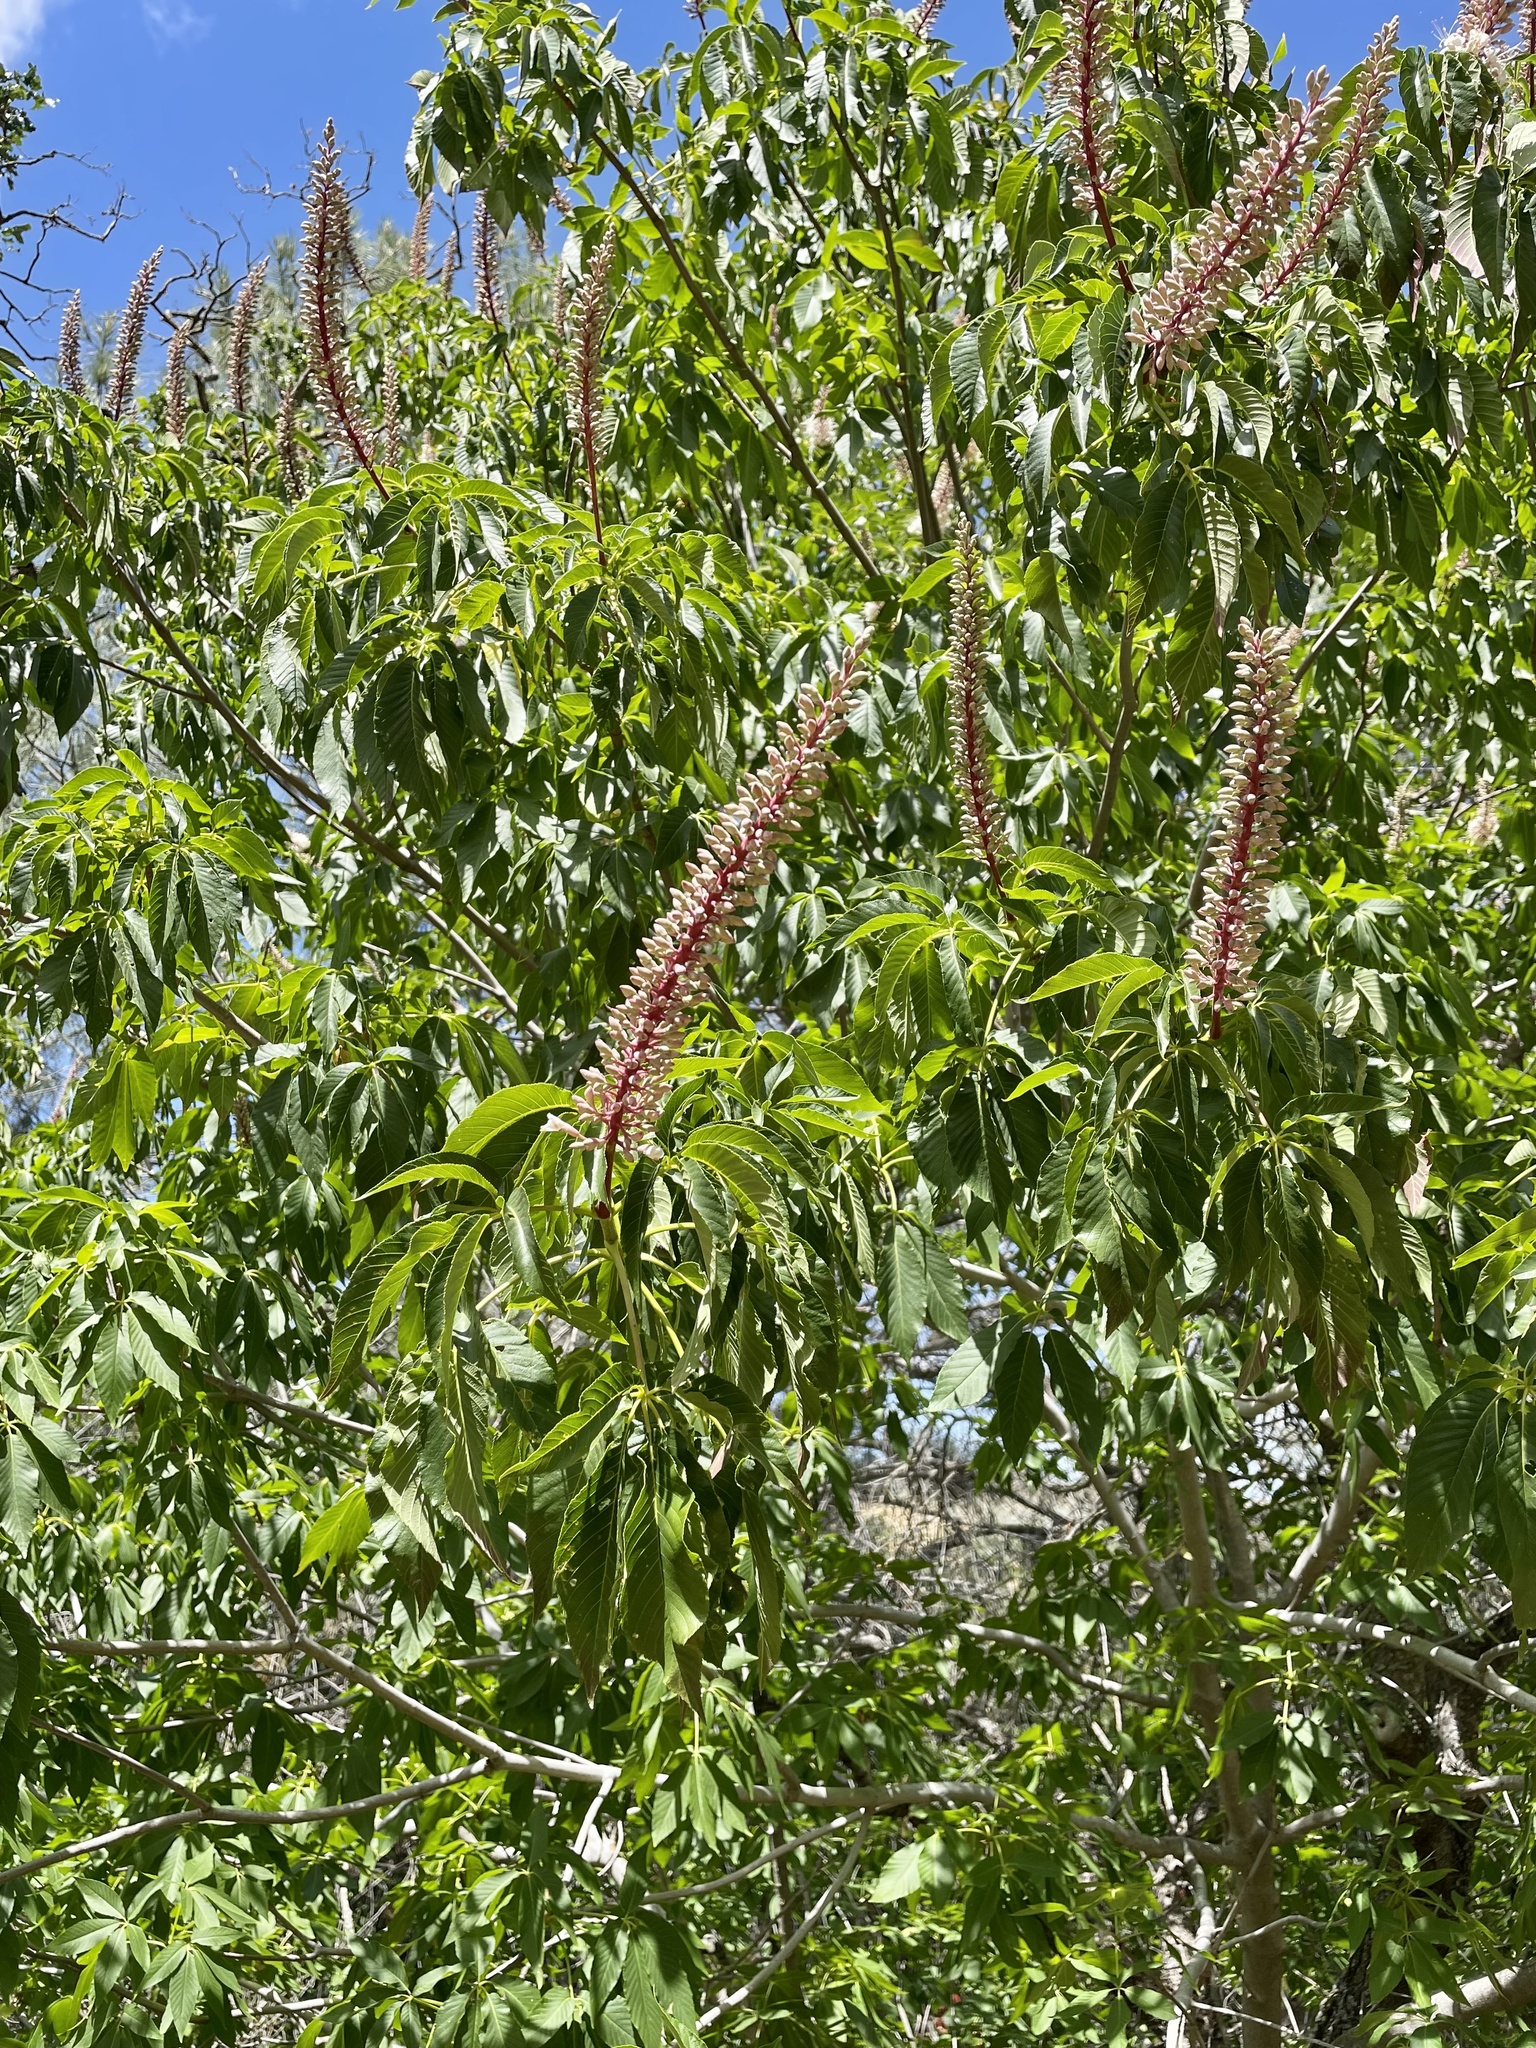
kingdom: Plantae
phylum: Tracheophyta
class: Magnoliopsida
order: Sapindales
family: Sapindaceae
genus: Aesculus
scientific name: Aesculus californica
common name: California buckeye
